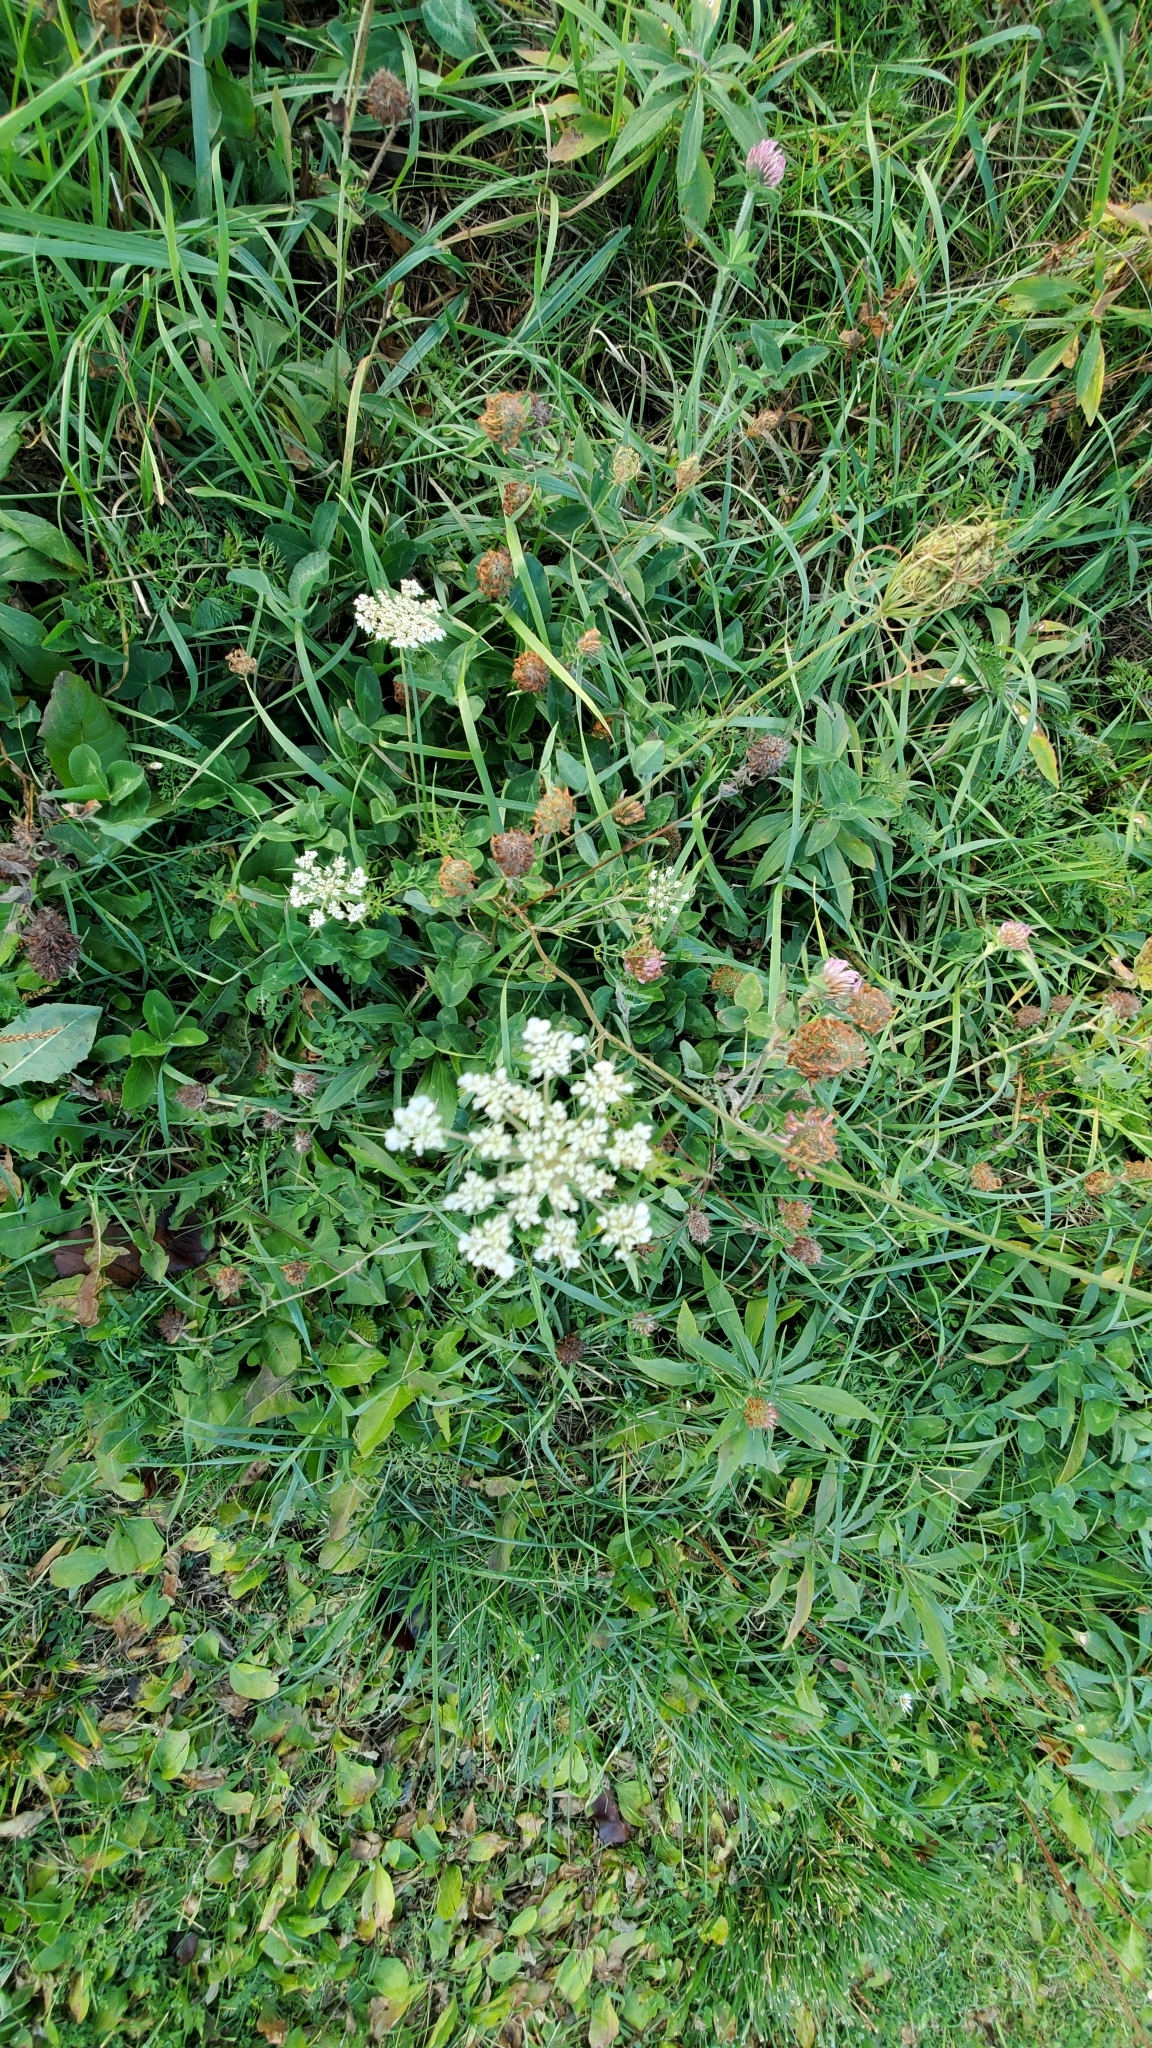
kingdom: Plantae
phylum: Tracheophyta
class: Magnoliopsida
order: Apiales
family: Apiaceae
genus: Daucus
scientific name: Daucus carota
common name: Wild carrot
